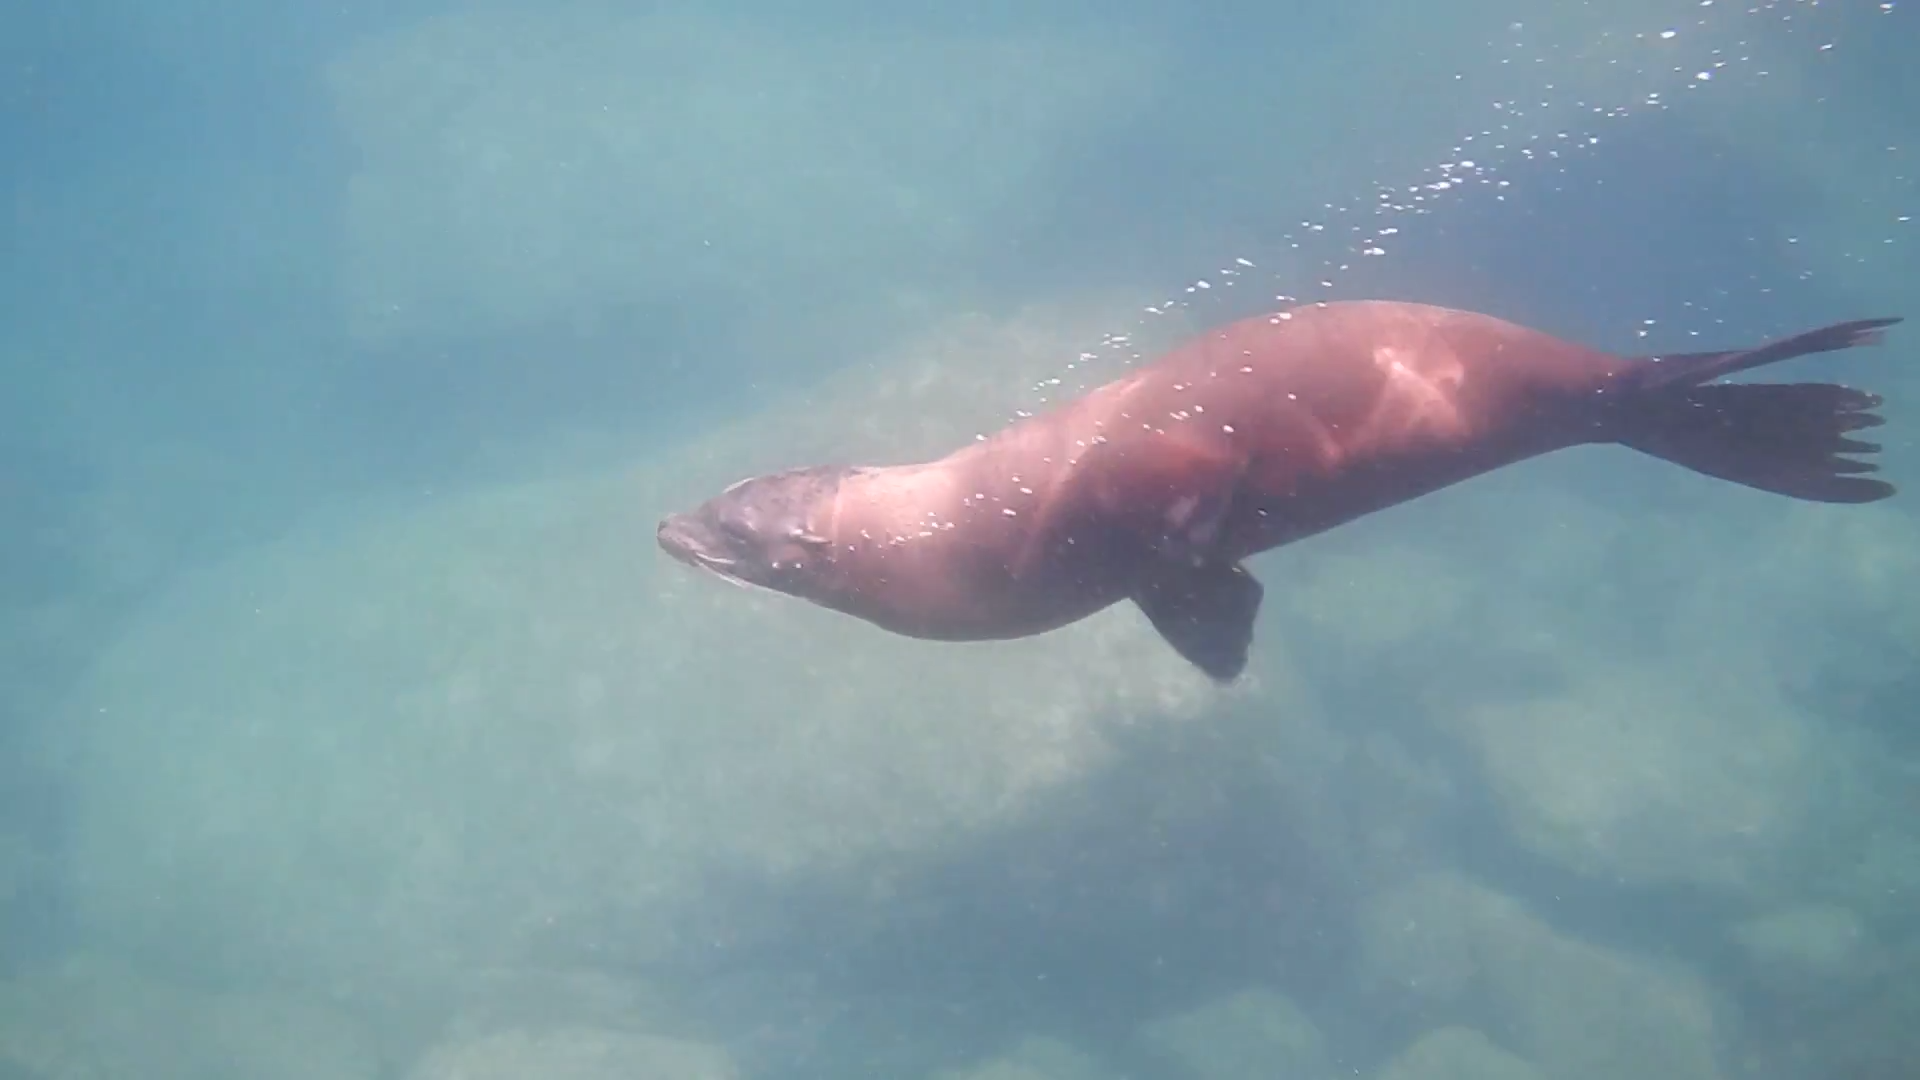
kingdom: Animalia
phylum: Chordata
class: Mammalia
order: Carnivora
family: Otariidae
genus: Zalophus
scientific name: Zalophus californianus
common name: California sea lion
